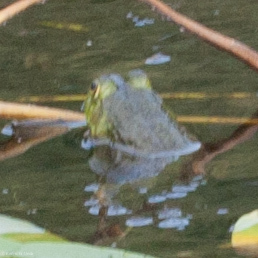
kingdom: Animalia
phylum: Chordata
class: Amphibia
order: Anura
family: Ranidae
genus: Lithobates
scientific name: Lithobates catesbeianus
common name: American bullfrog
